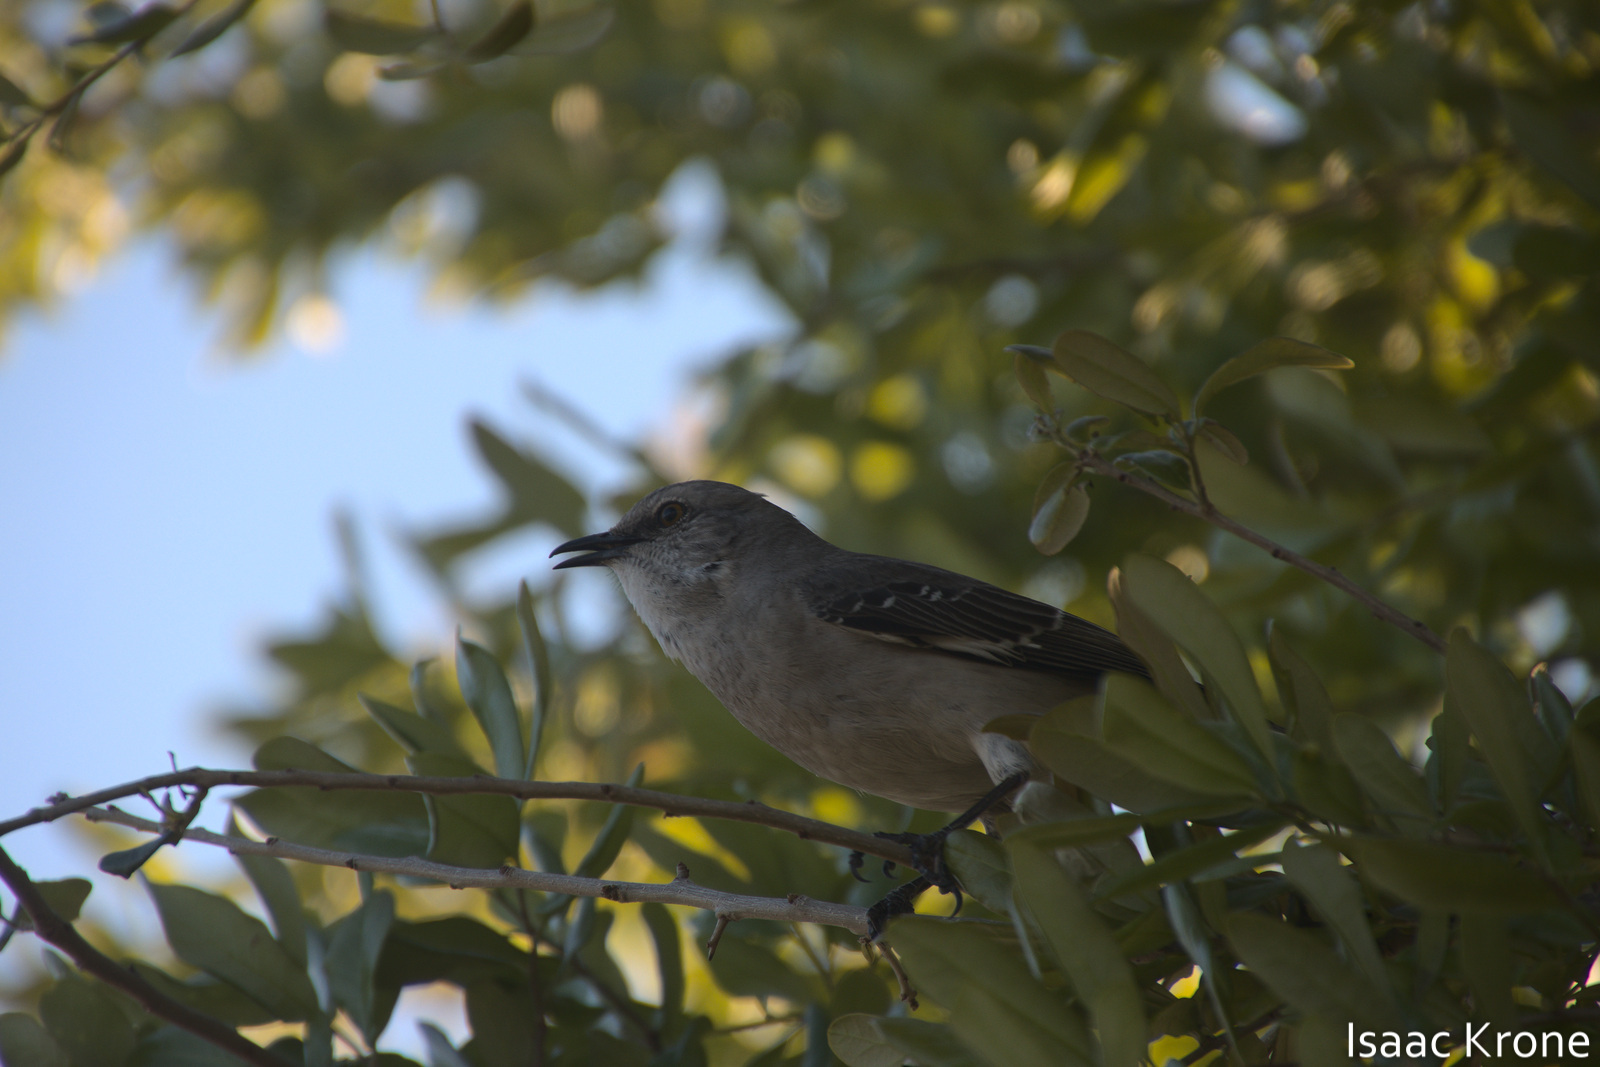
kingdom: Animalia
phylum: Chordata
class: Aves
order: Passeriformes
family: Mimidae
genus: Mimus
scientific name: Mimus polyglottos
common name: Northern mockingbird
